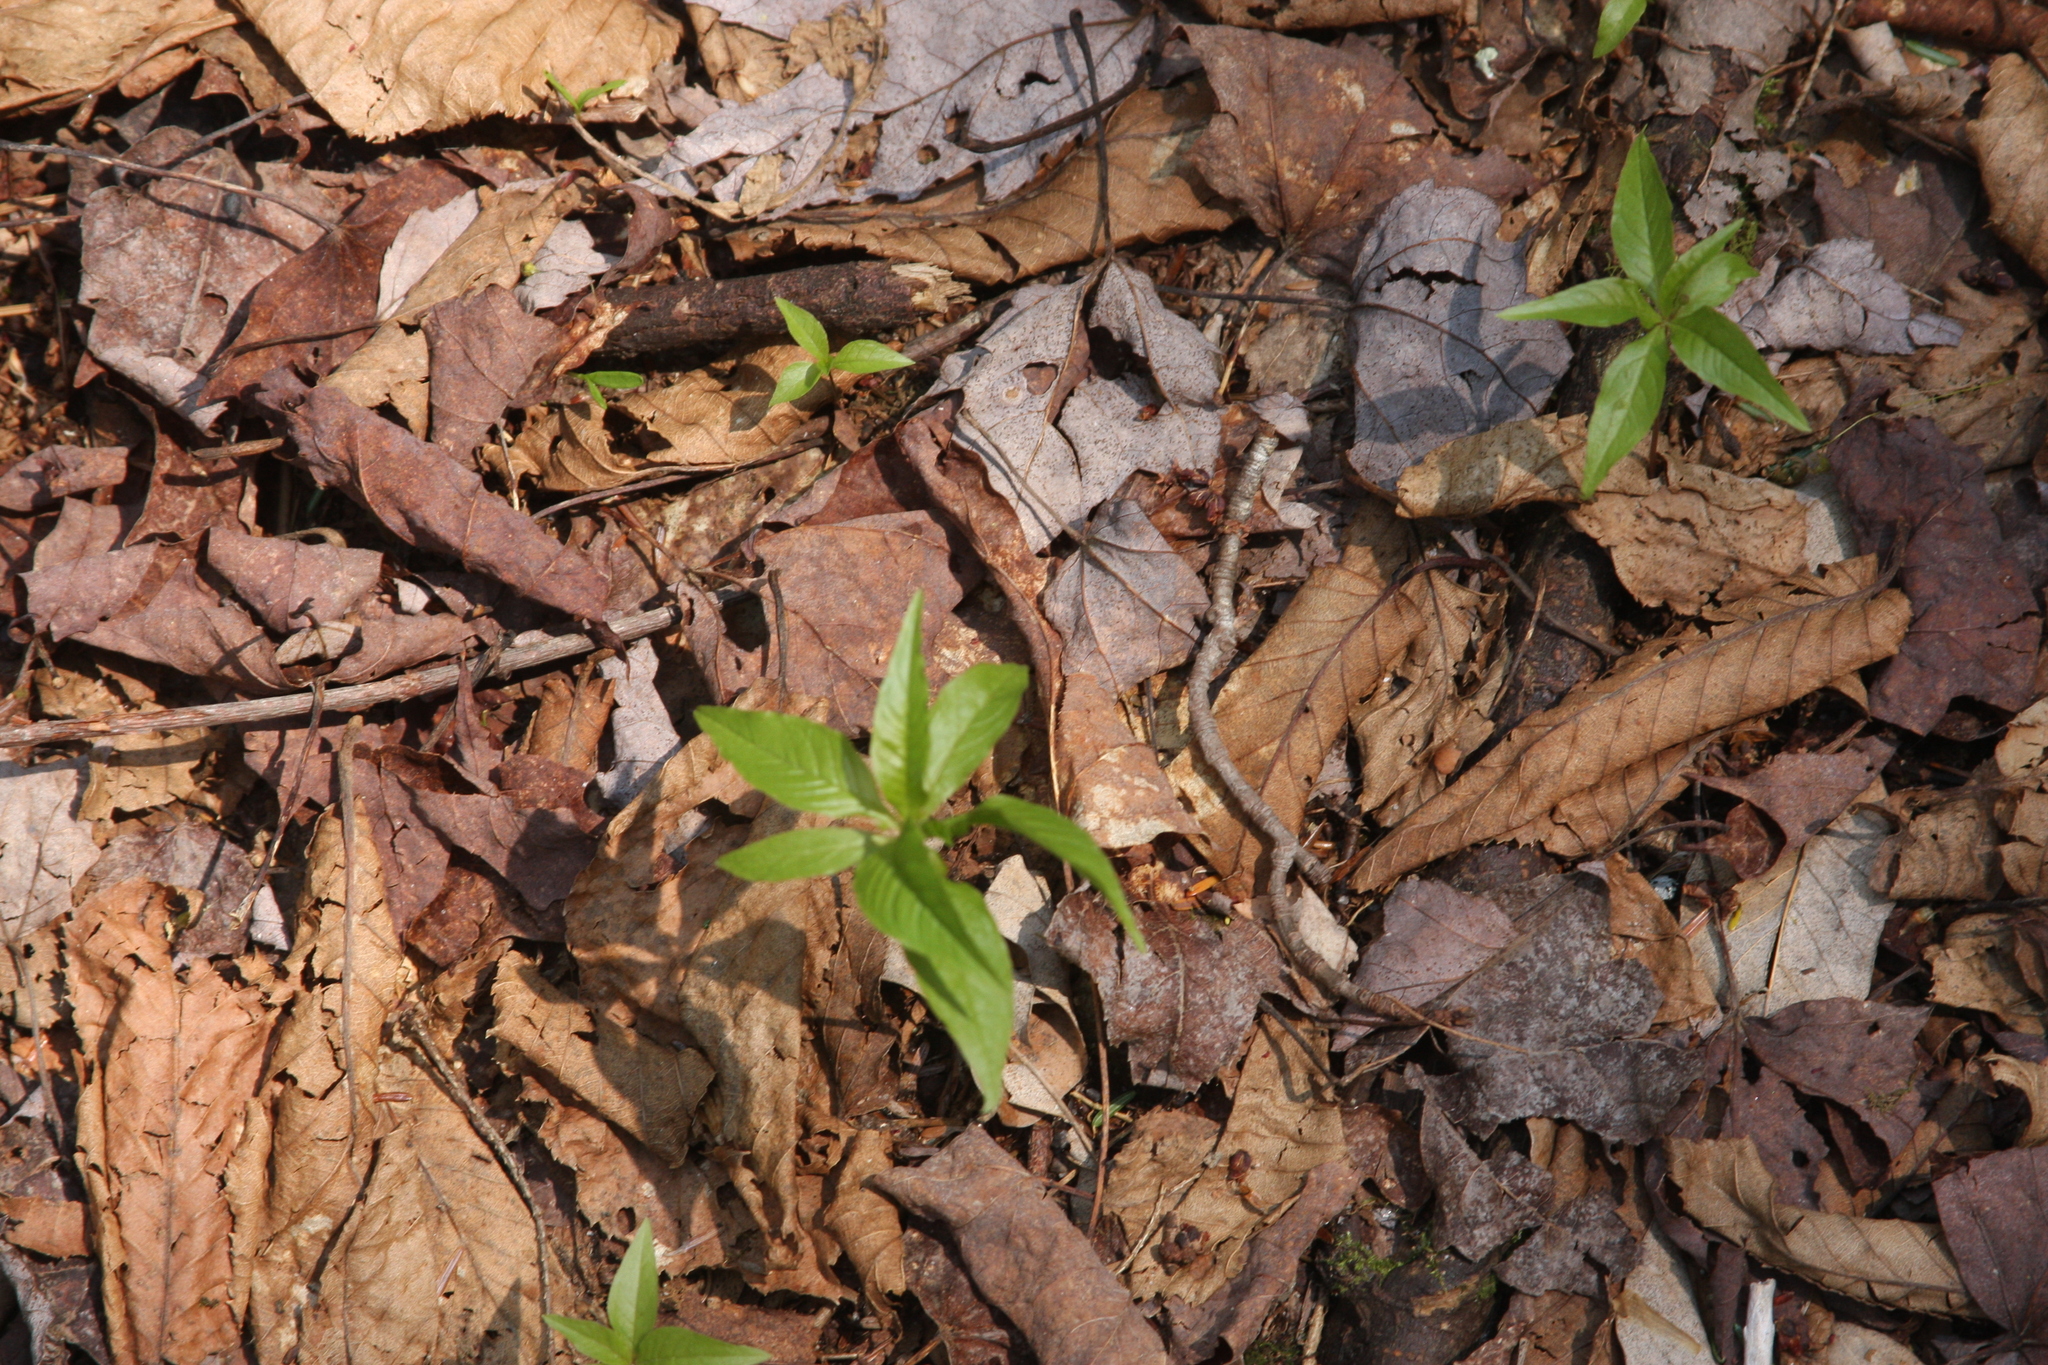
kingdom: Plantae
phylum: Tracheophyta
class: Magnoliopsida
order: Ericales
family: Primulaceae
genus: Lysimachia
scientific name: Lysimachia borealis
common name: American starflower
